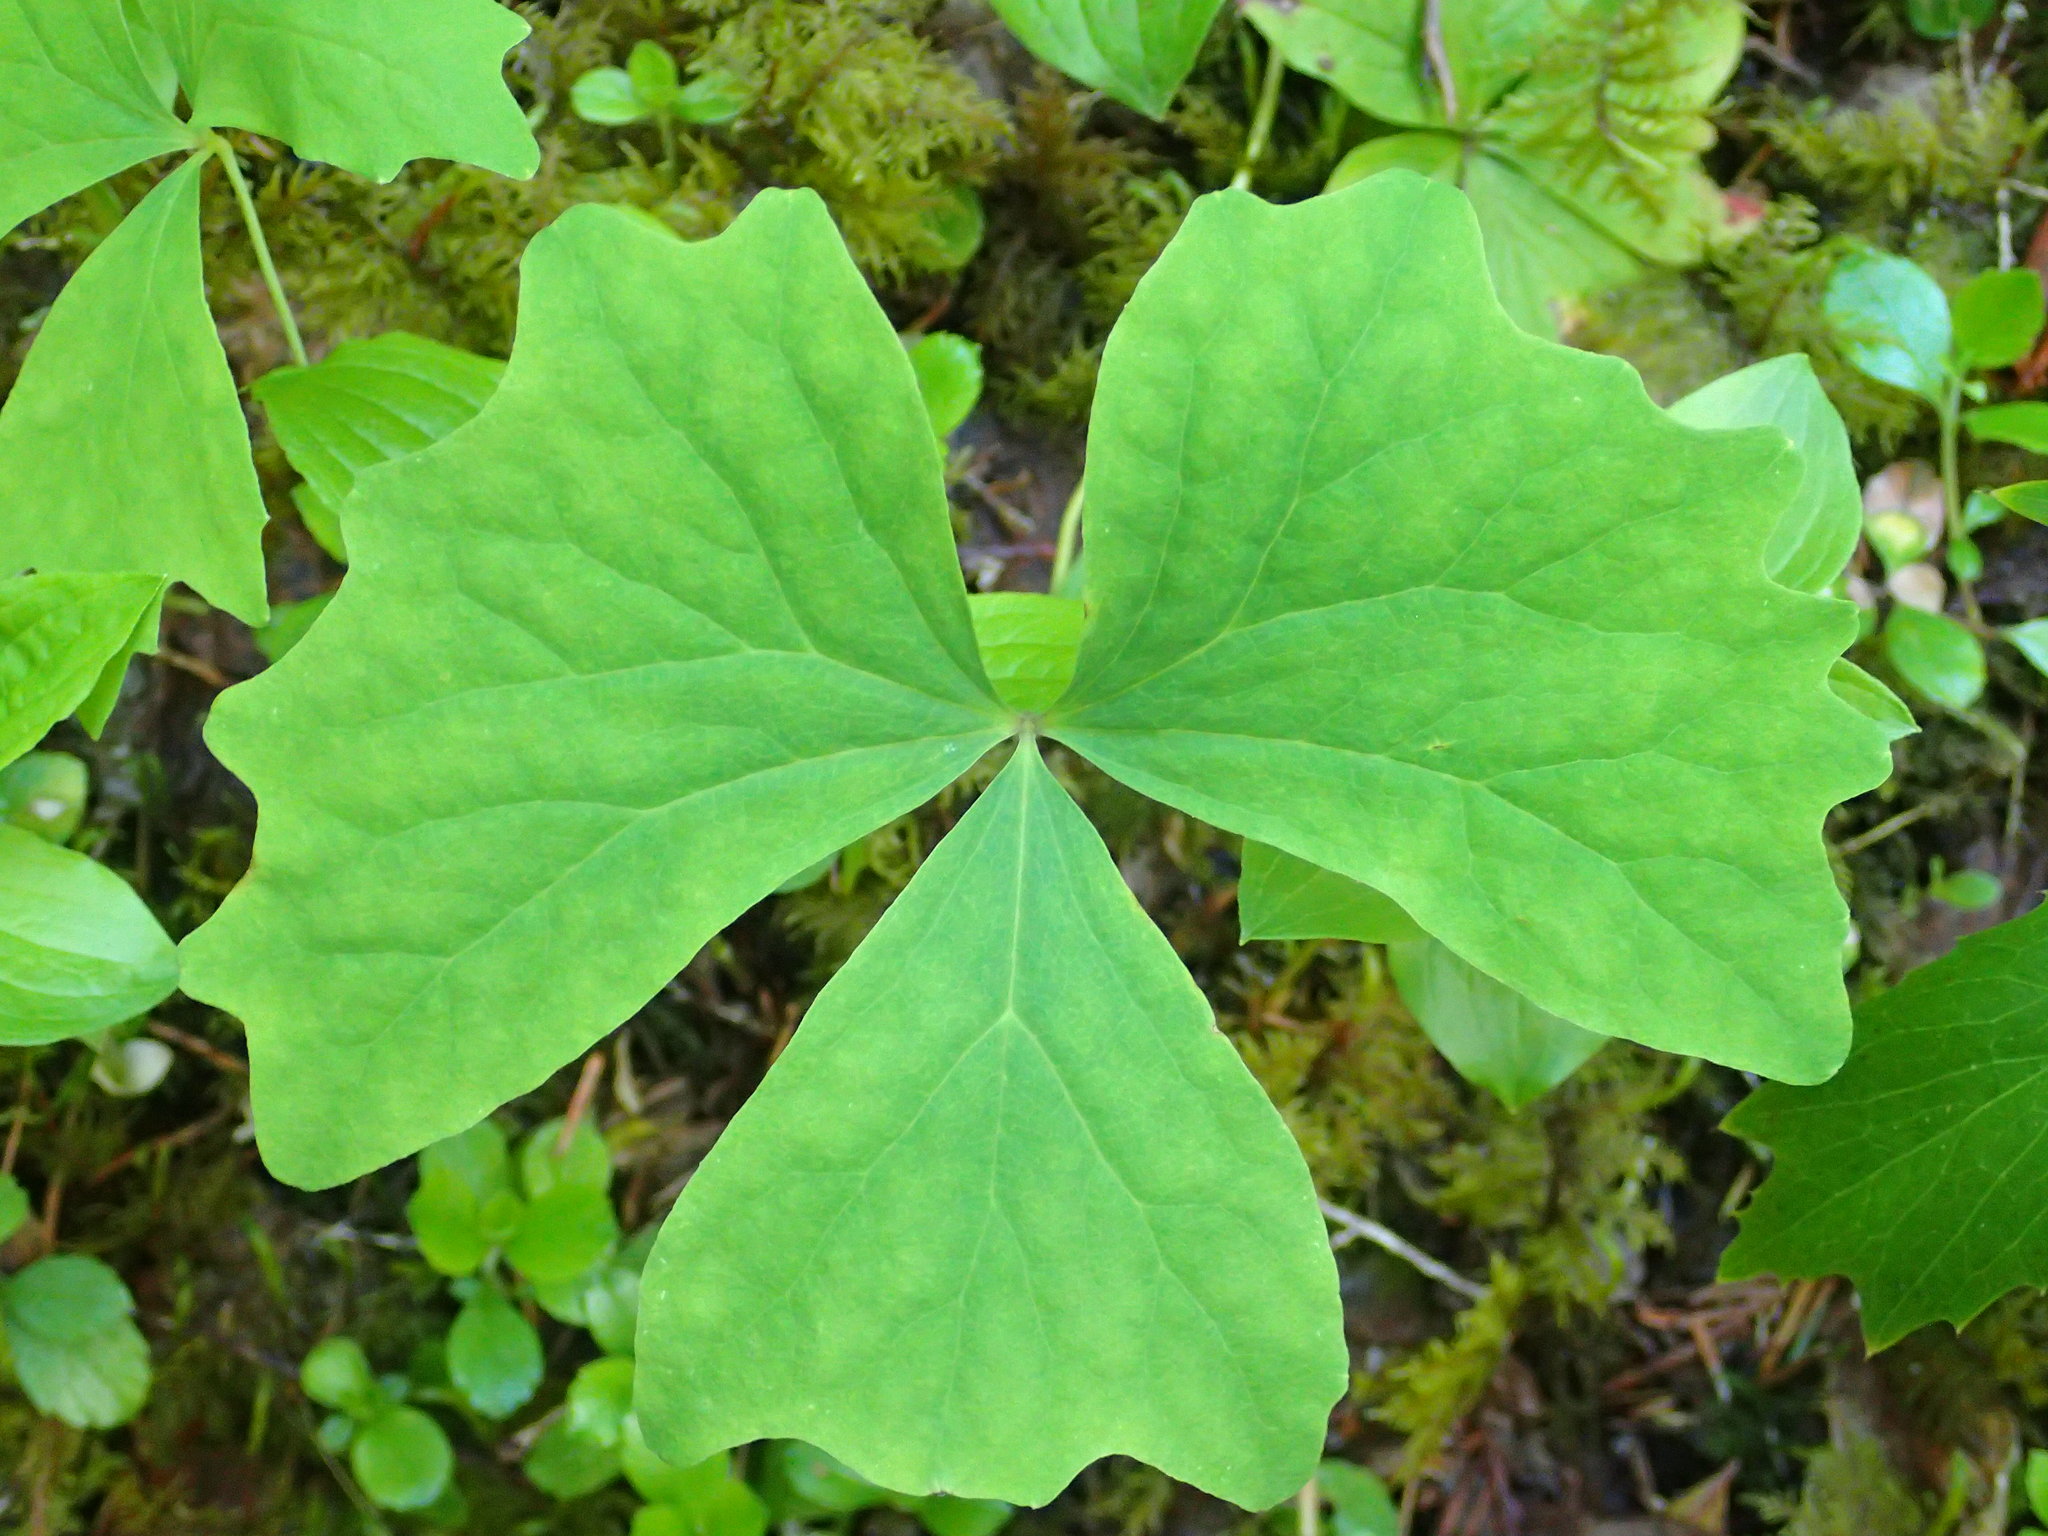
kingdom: Plantae
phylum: Tracheophyta
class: Magnoliopsida
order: Ranunculales
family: Berberidaceae
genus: Achlys
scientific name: Achlys triphylla
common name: Vanilla-leaf
